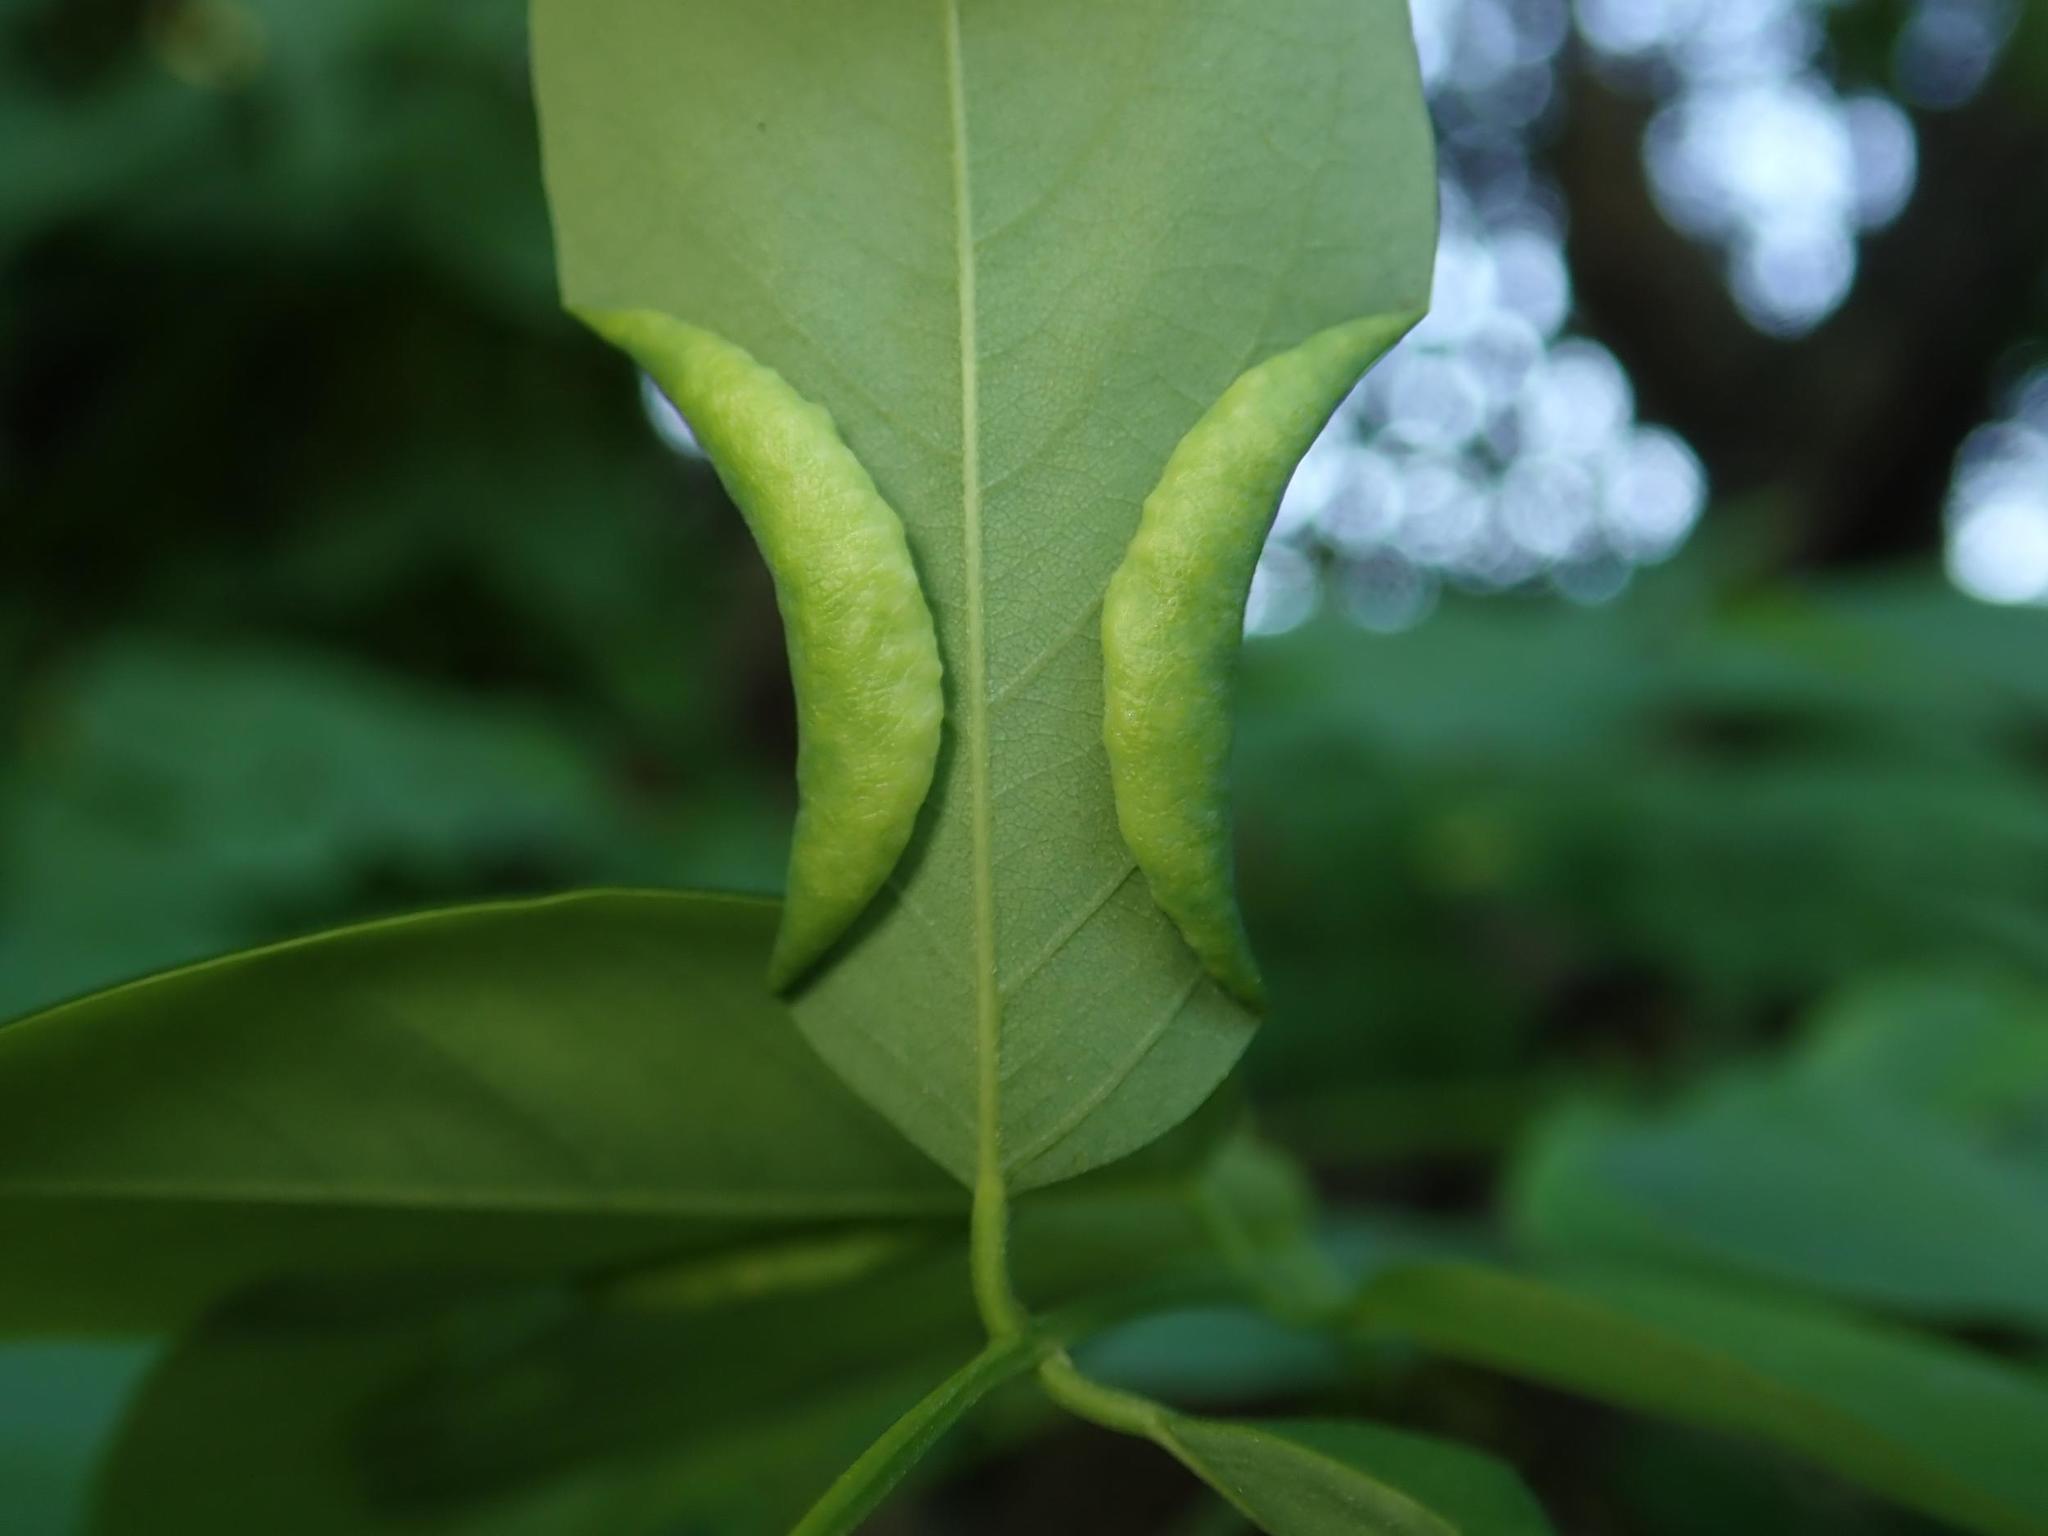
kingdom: Animalia
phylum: Arthropoda
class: Insecta
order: Diptera
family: Cecidomyiidae
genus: Obolodiplosis
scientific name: Obolodiplosis robiniae
